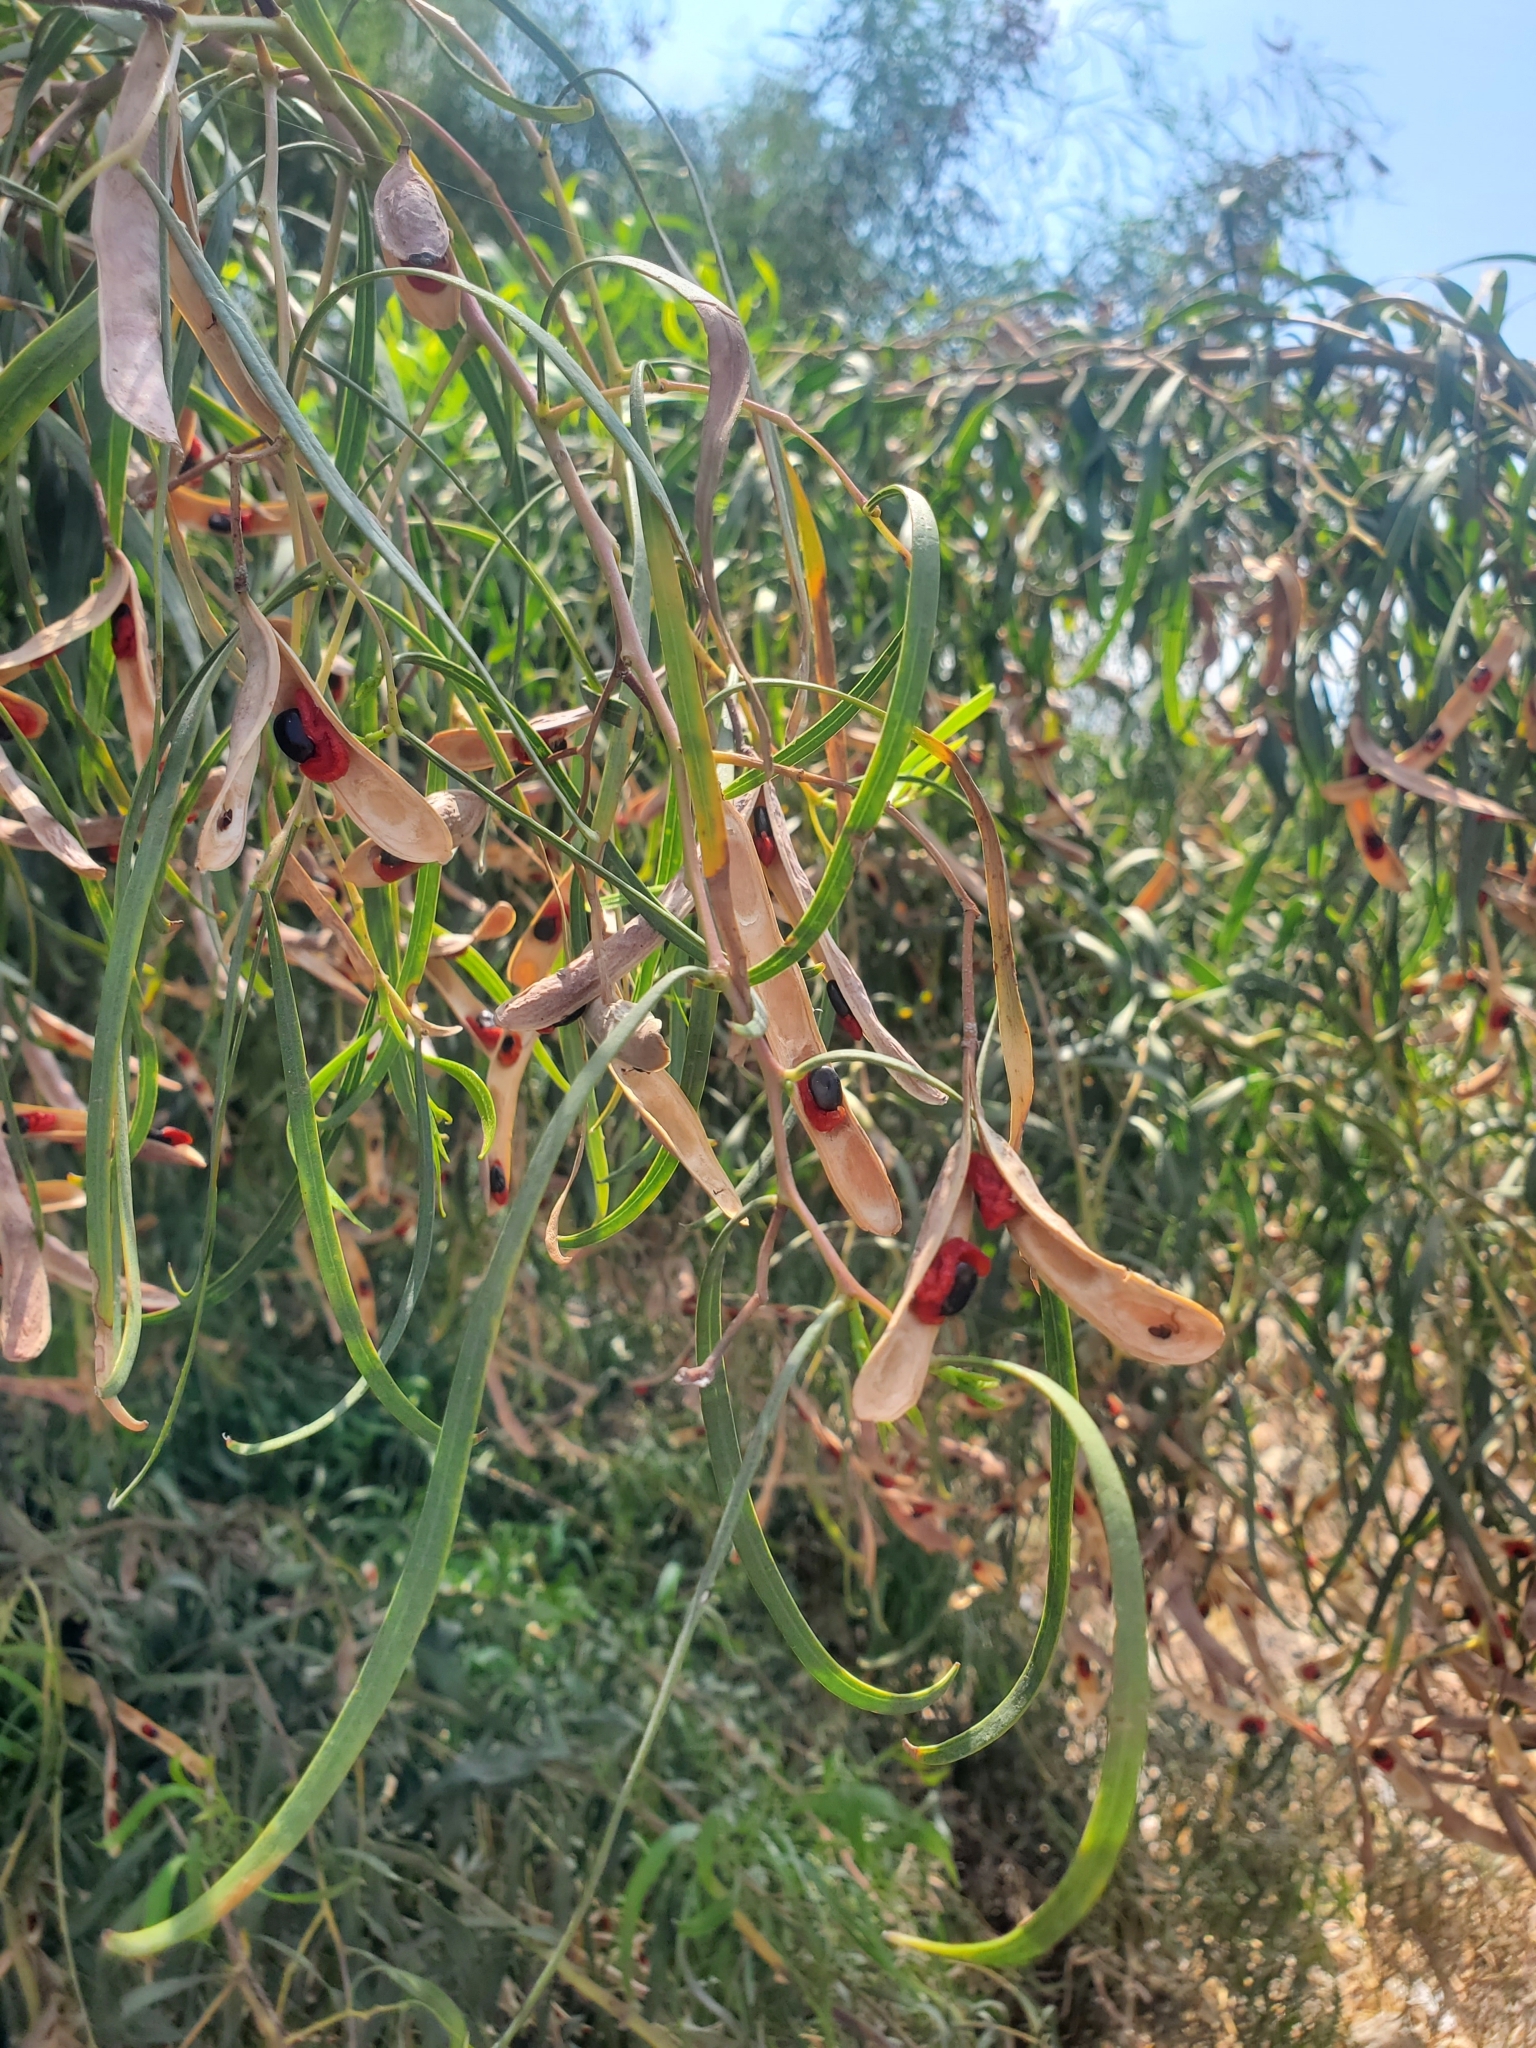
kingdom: Plantae
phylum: Tracheophyta
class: Magnoliopsida
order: Fabales
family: Fabaceae
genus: Acacia
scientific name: Acacia salicina
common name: Broughton willow wattle
